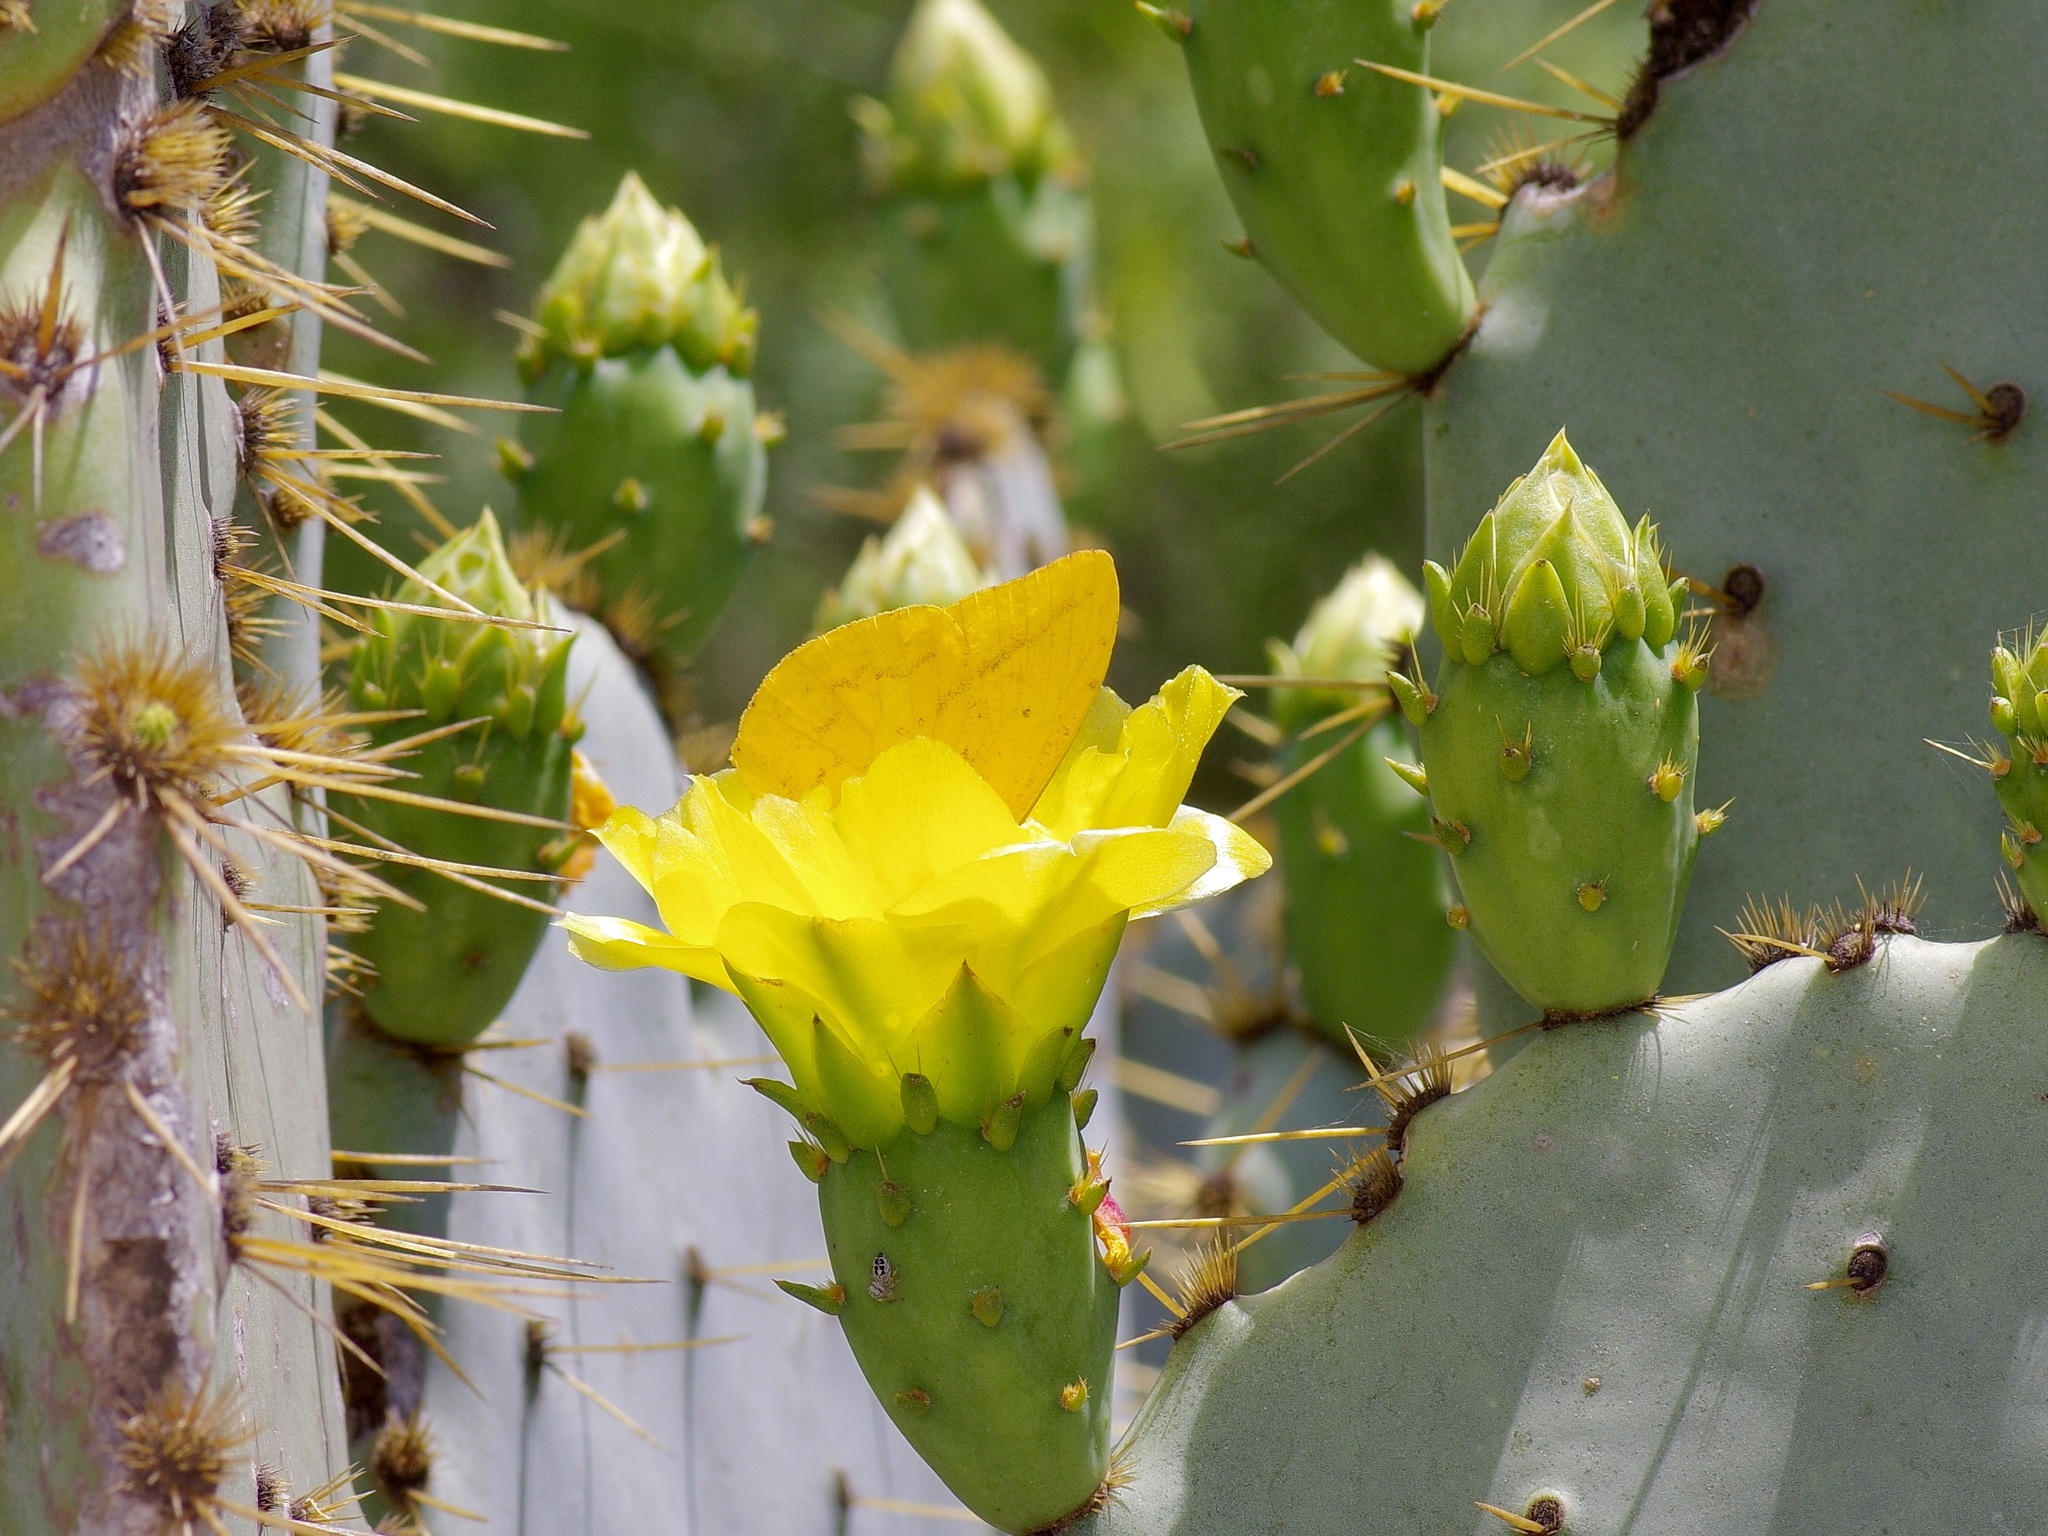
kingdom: Animalia
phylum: Arthropoda
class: Insecta
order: Lepidoptera
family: Pieridae
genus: Phoebis
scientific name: Phoebis agarithe
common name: Large orange sulphur
